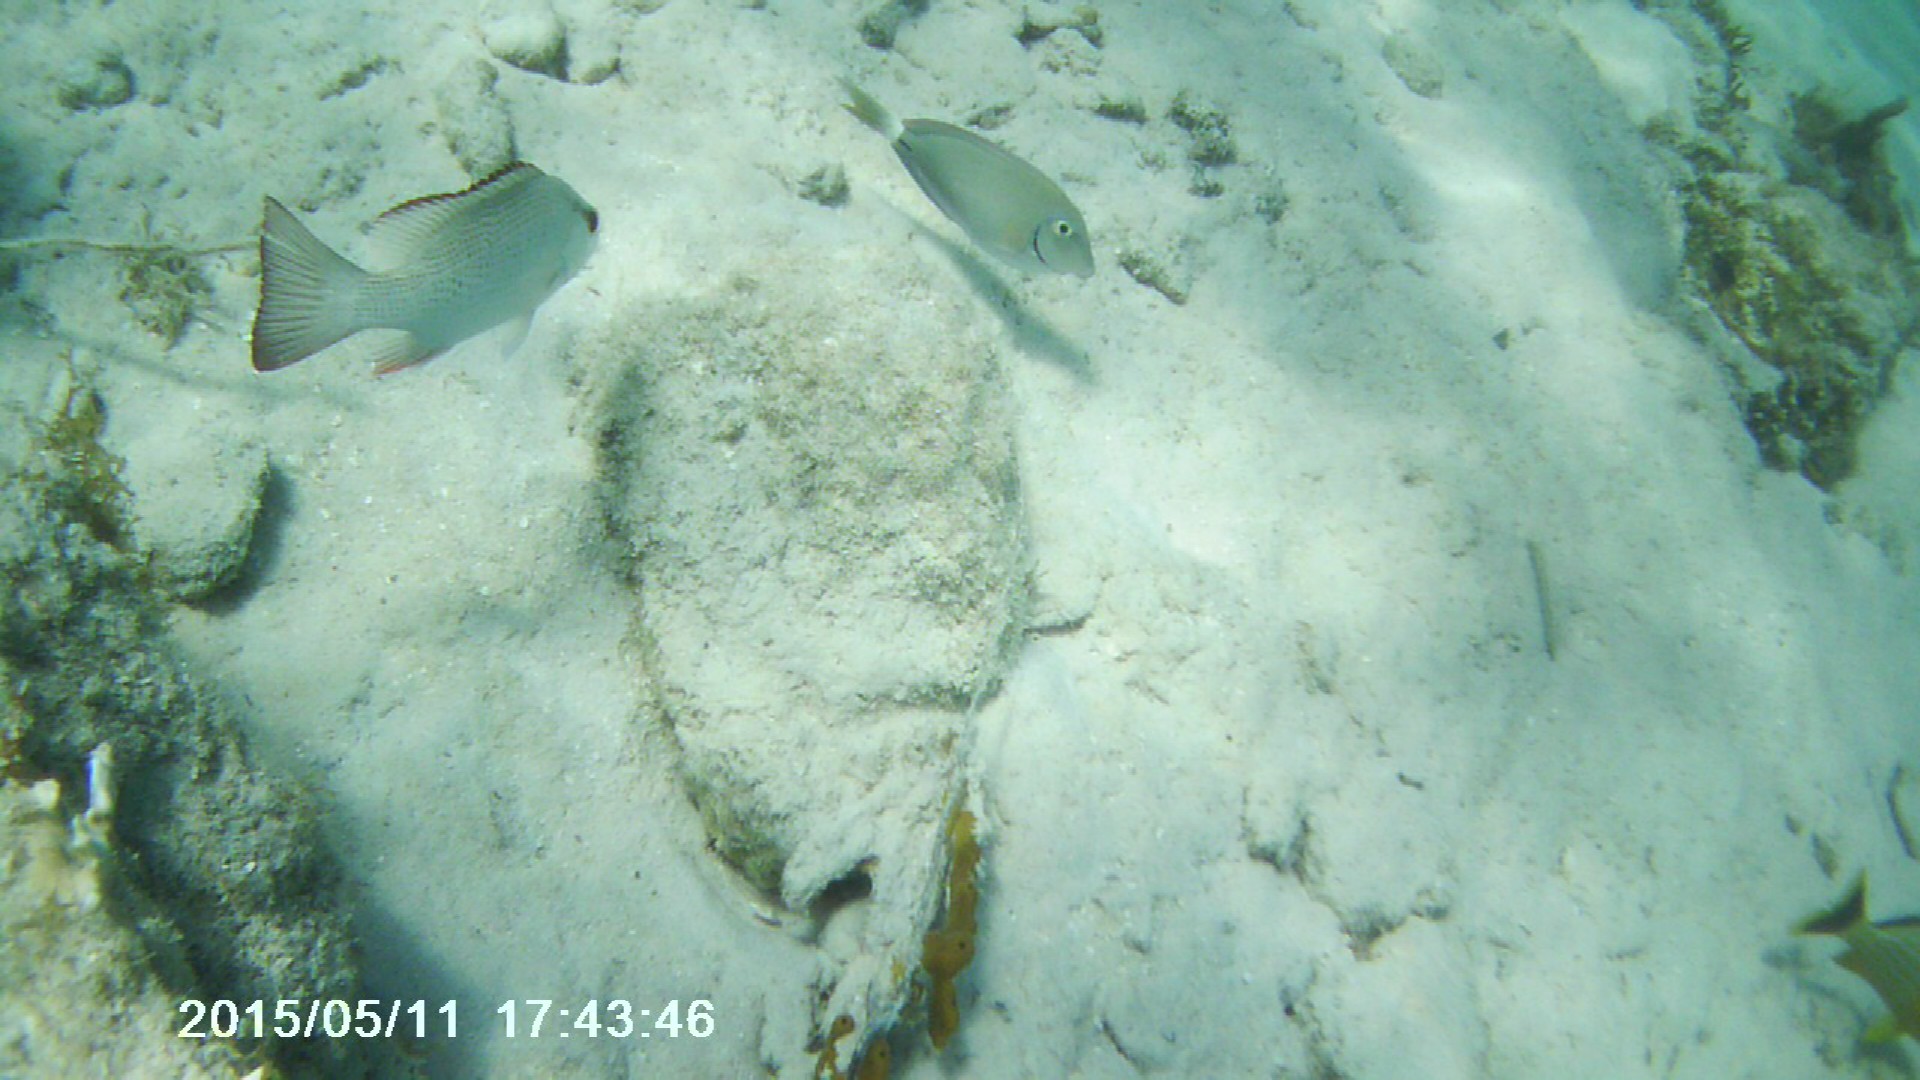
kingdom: Animalia
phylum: Chordata
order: Perciformes
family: Acanthuridae
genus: Acanthurus
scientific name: Acanthurus bahianus
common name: Ocean surgeon
